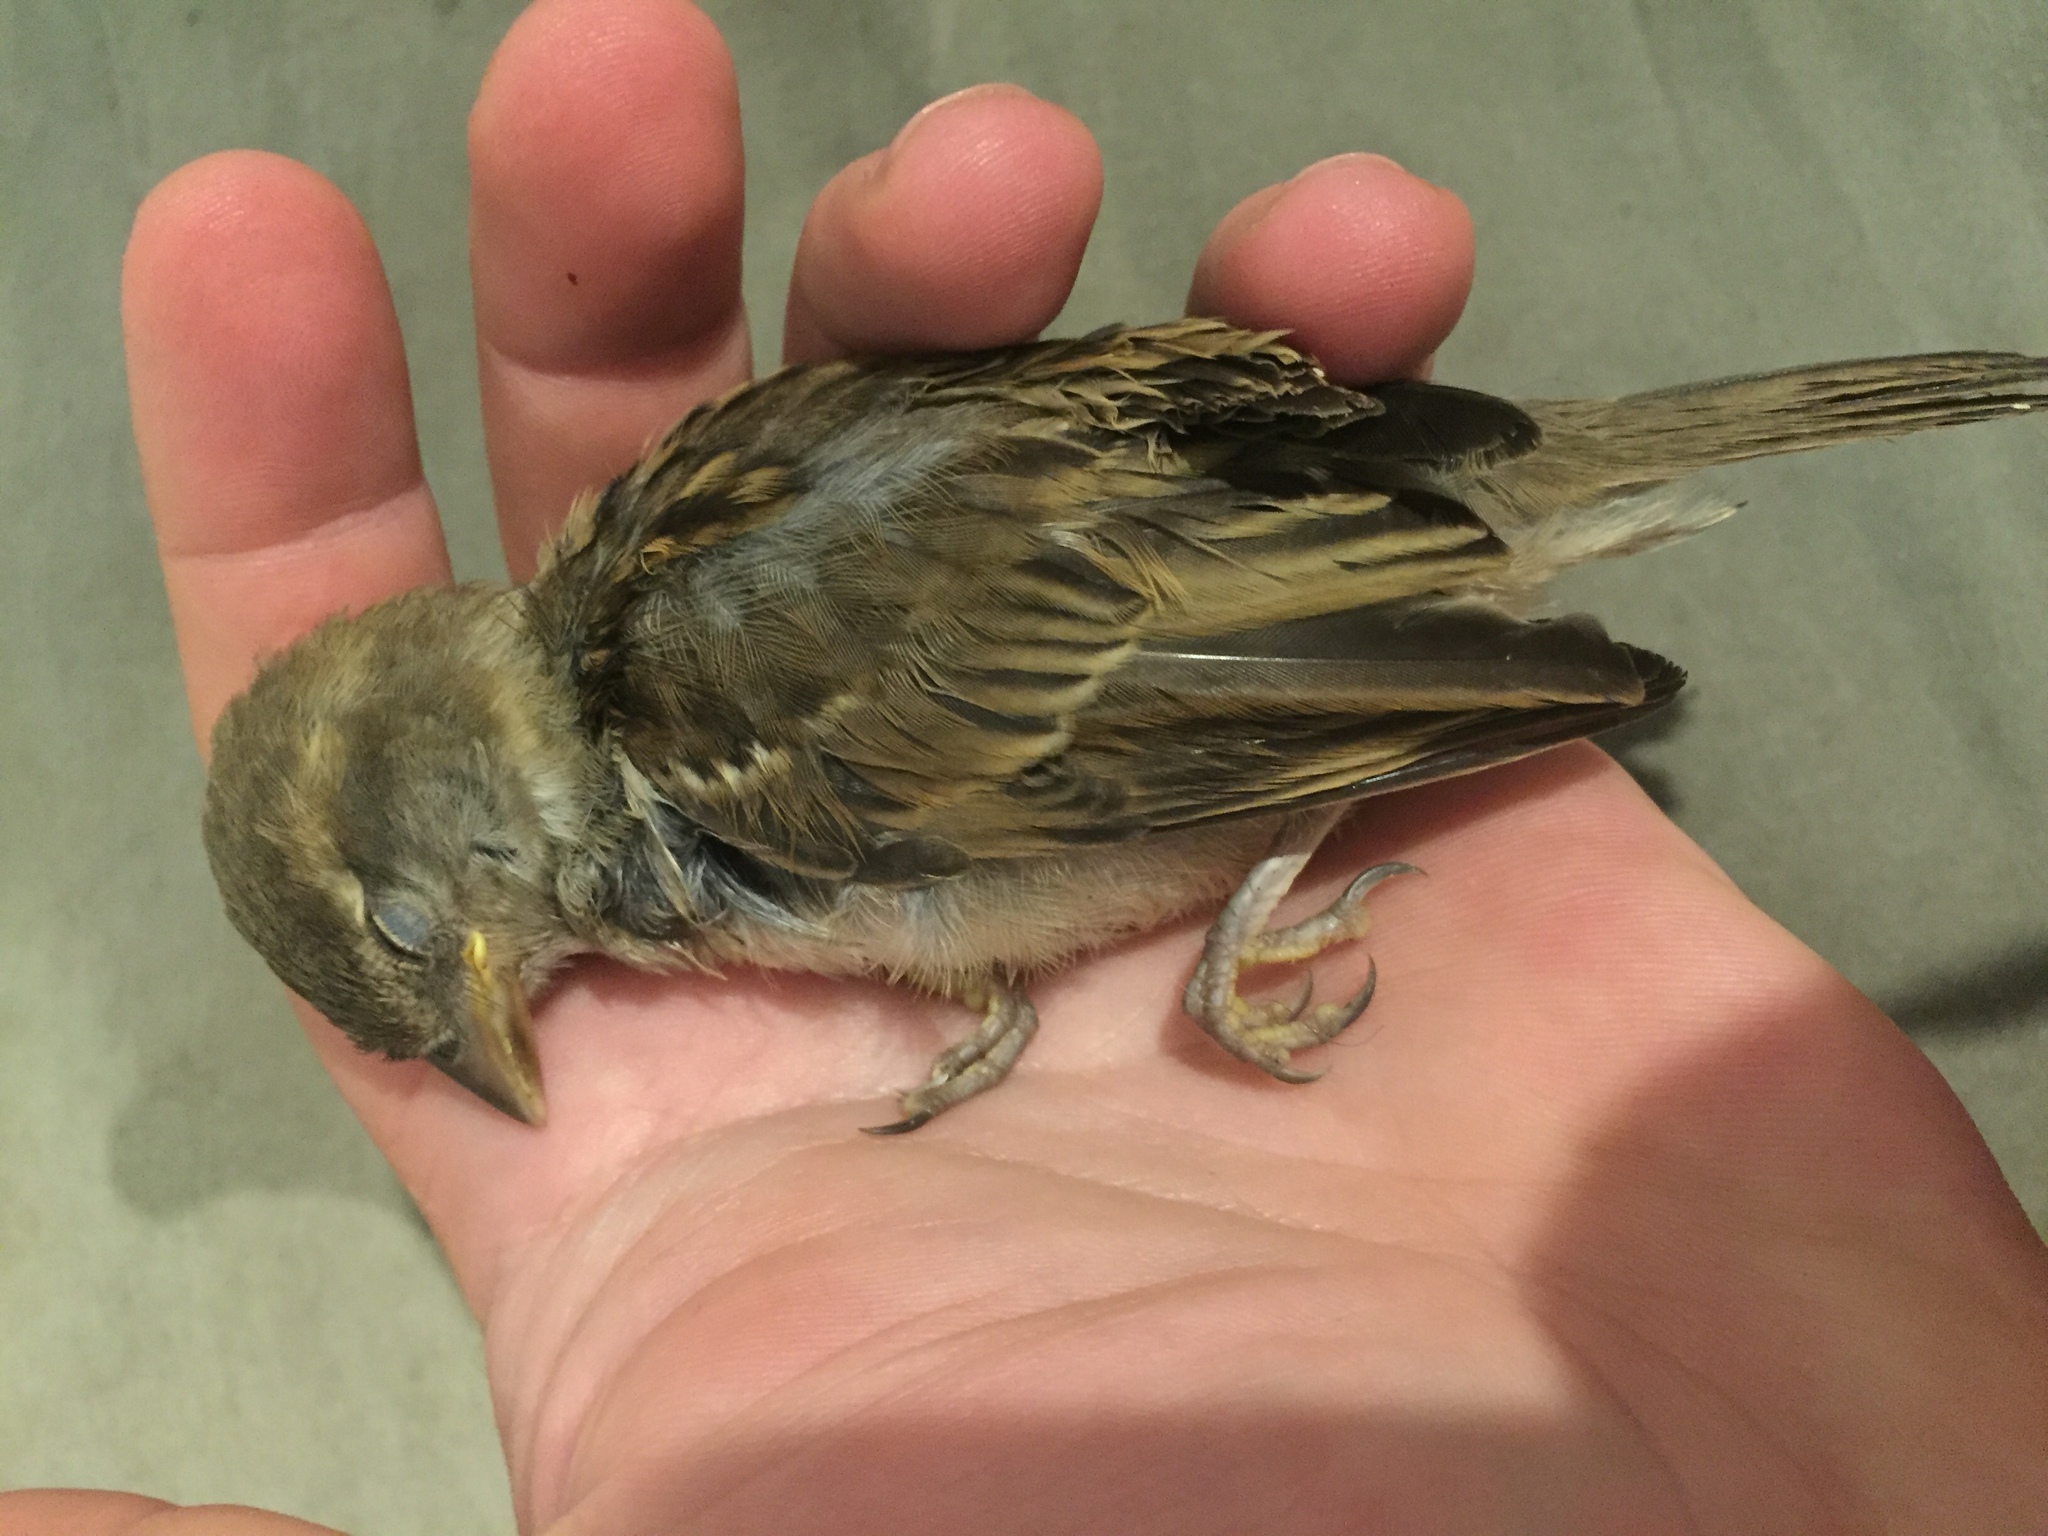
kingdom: Animalia
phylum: Chordata
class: Aves
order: Passeriformes
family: Passeridae
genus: Passer
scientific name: Passer domesticus
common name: House sparrow
